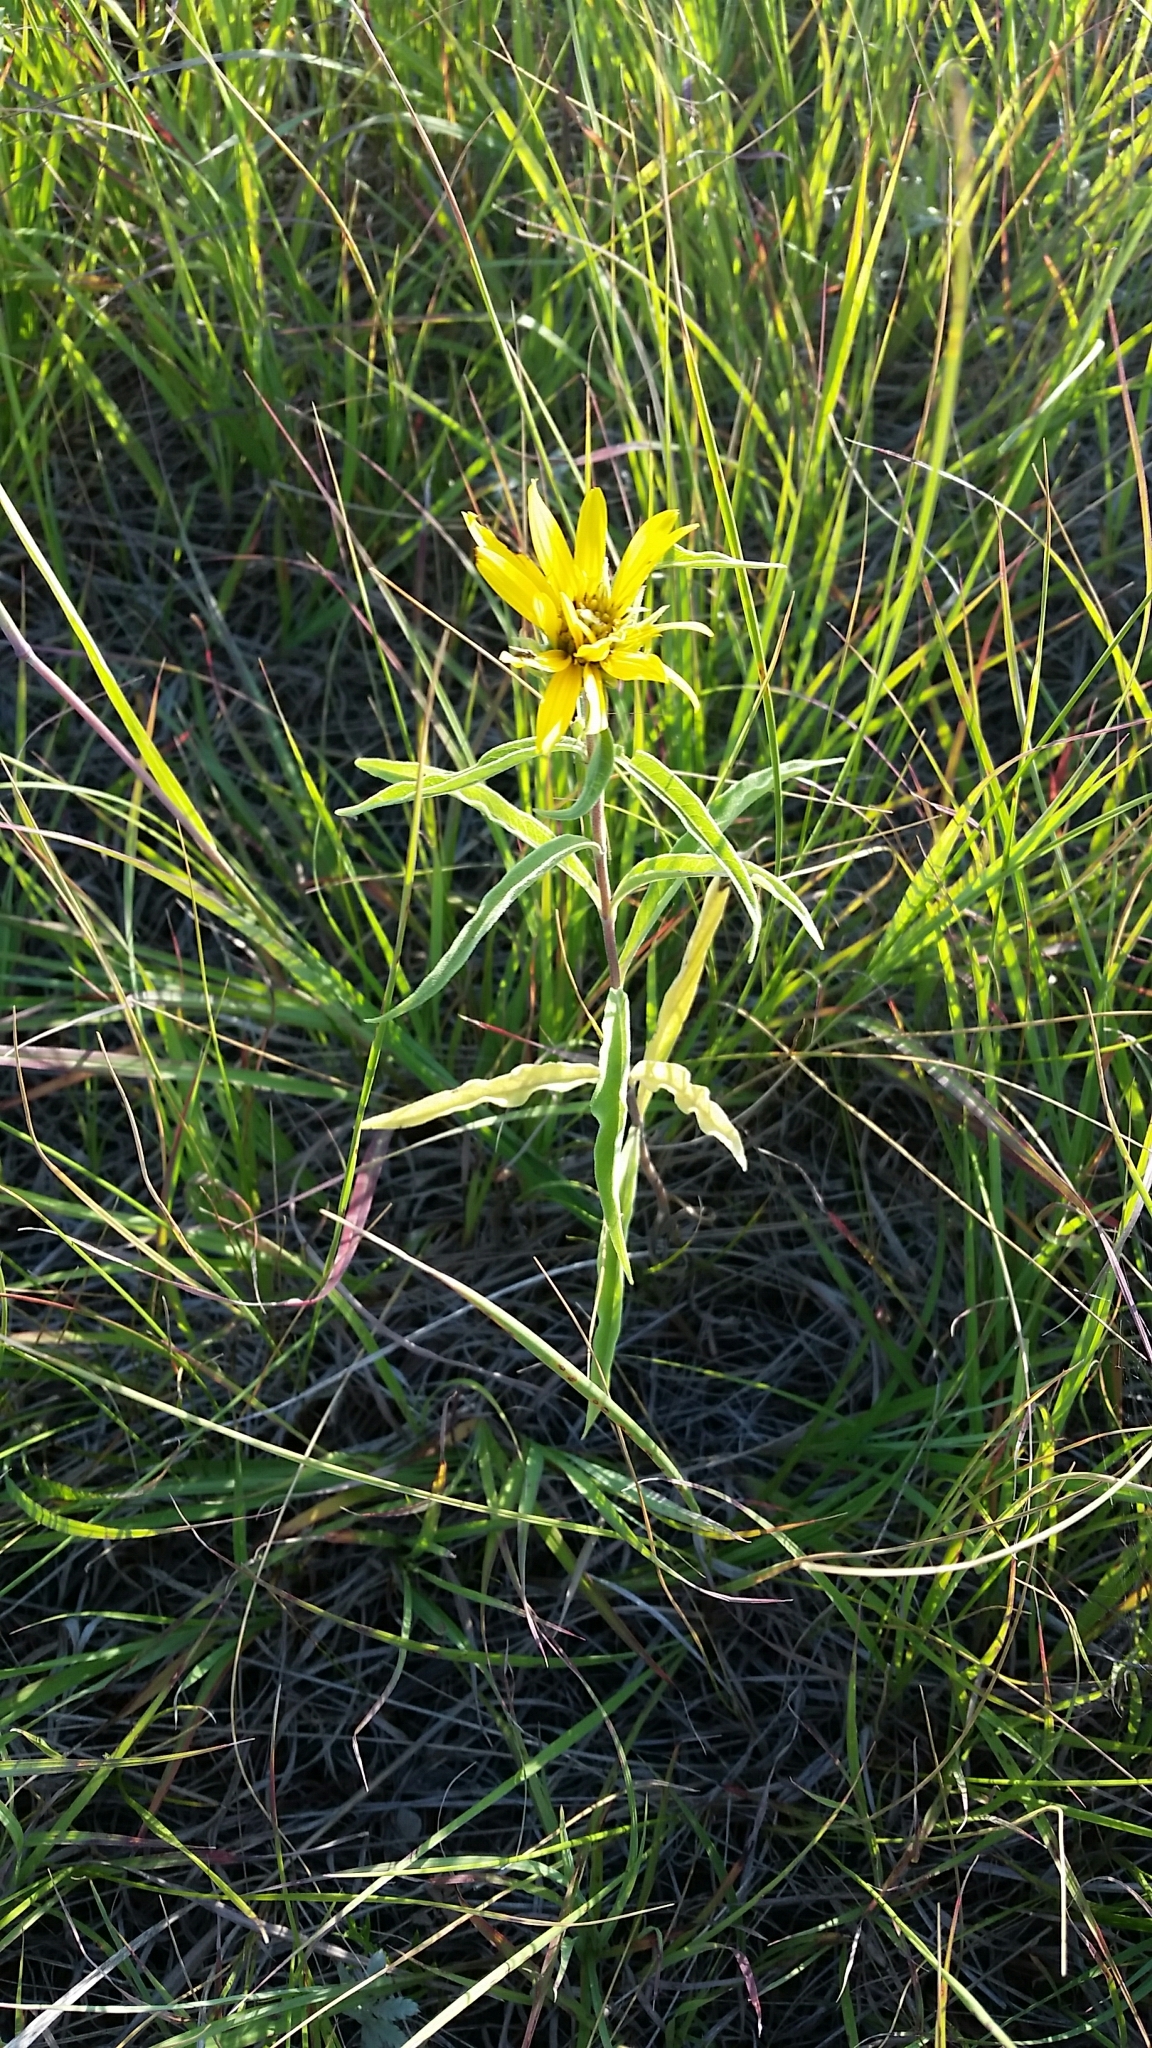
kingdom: Plantae
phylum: Tracheophyta
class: Magnoliopsida
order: Asterales
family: Asteraceae
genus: Helianthus
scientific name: Helianthus maximiliani
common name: Maximilian's sunflower
